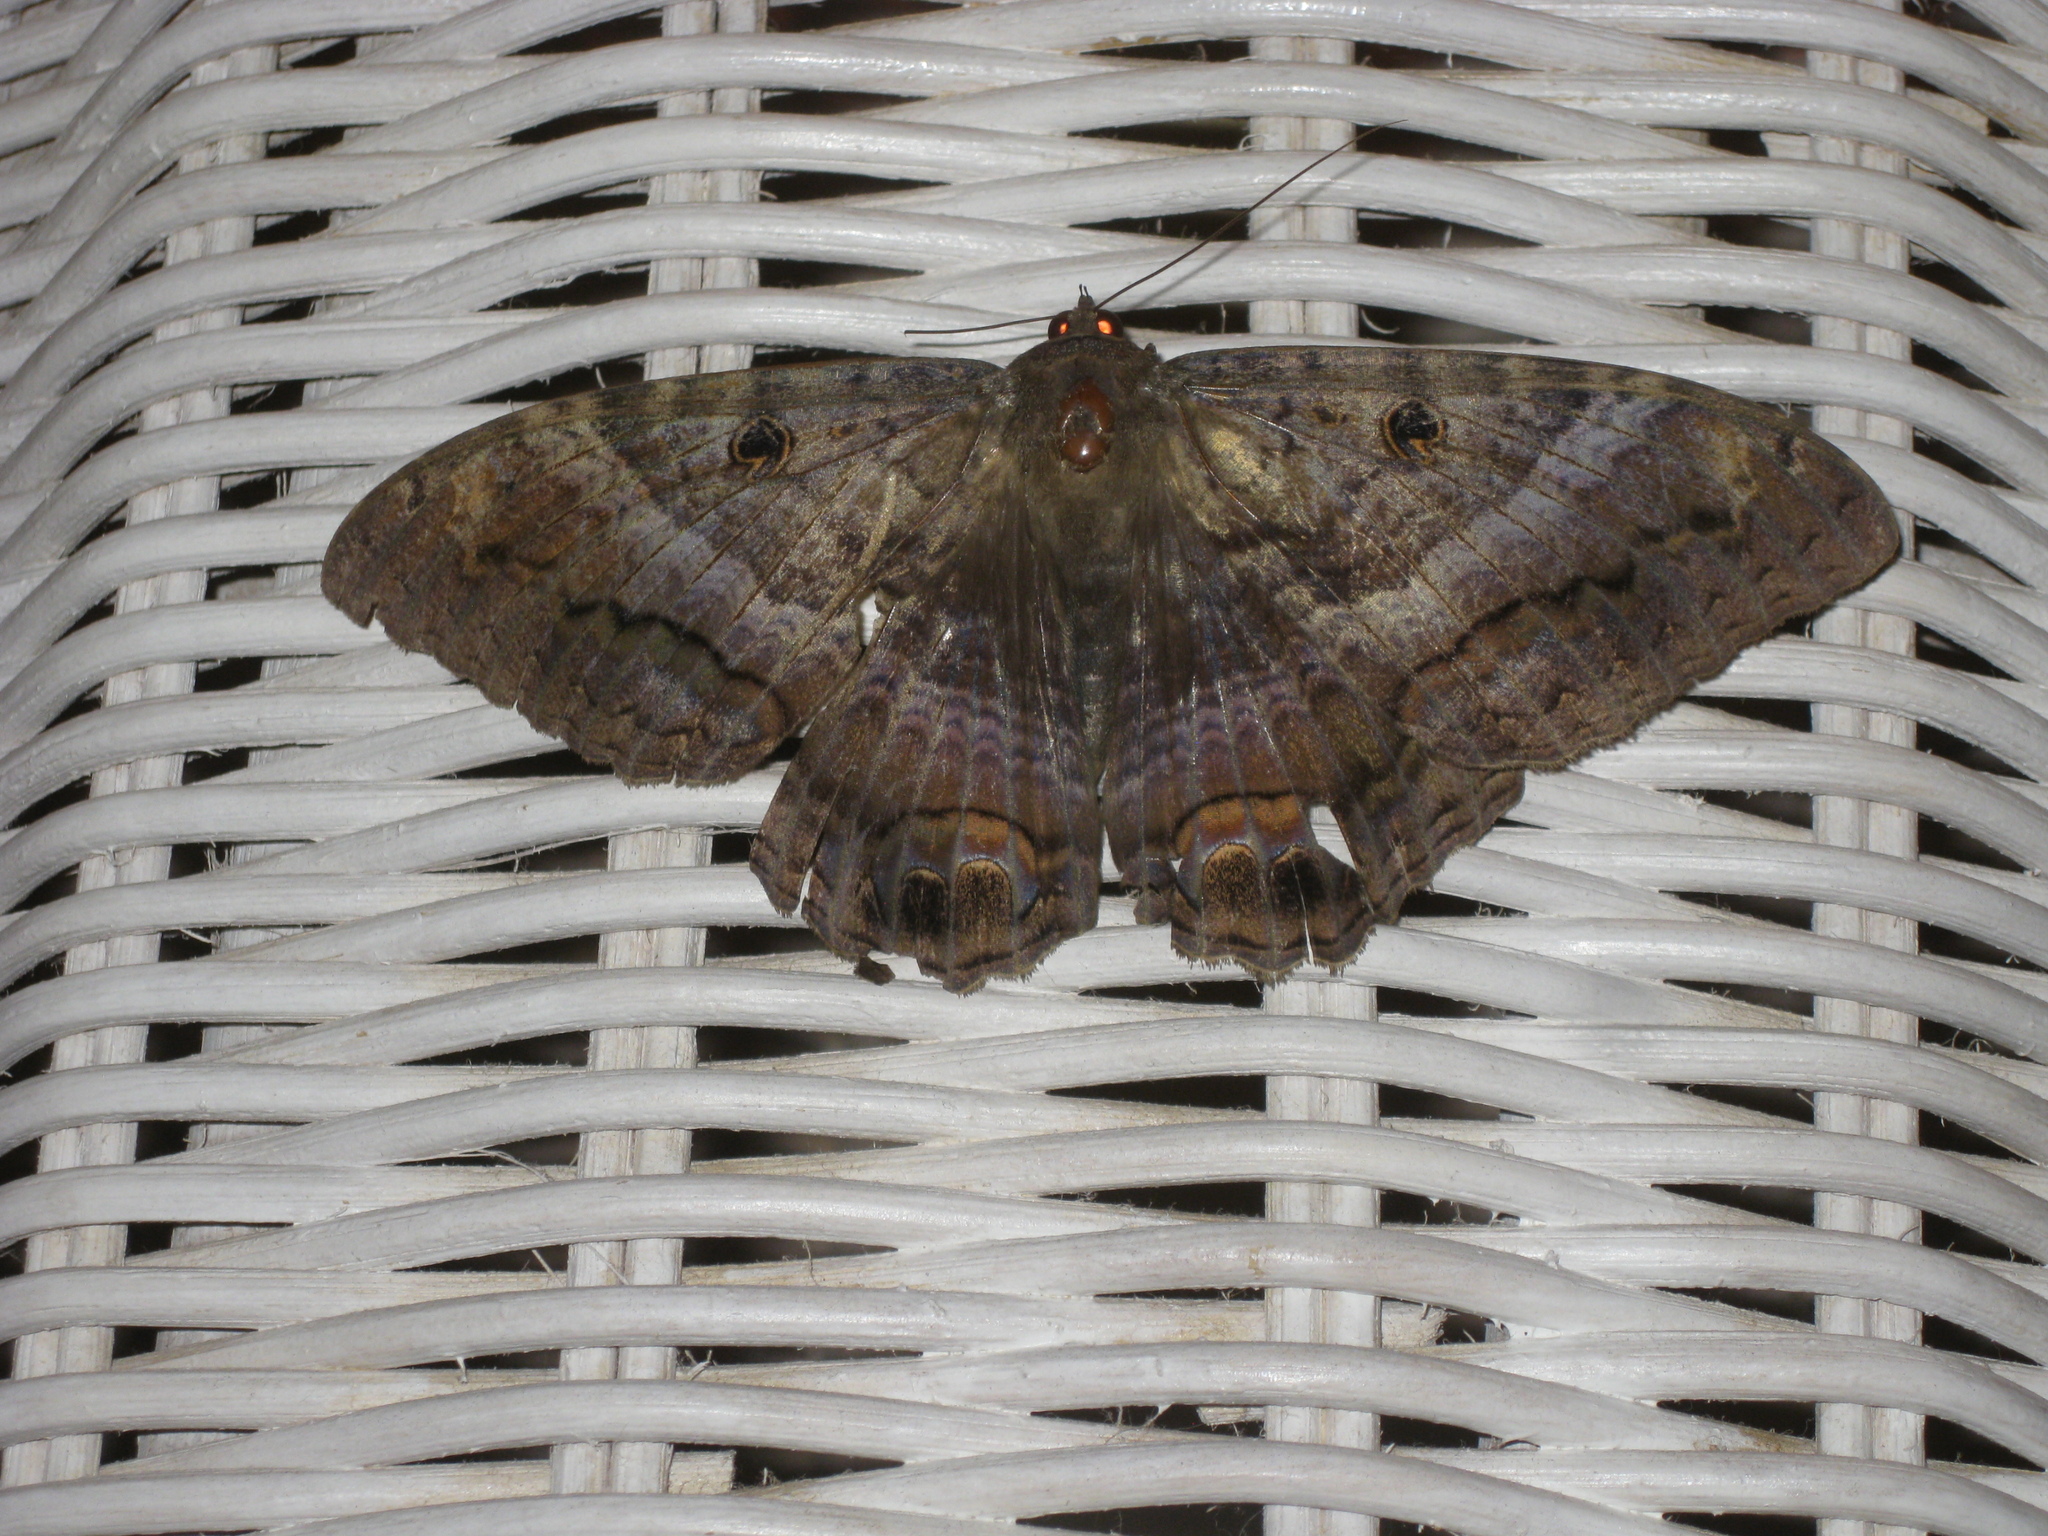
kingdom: Animalia
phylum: Arthropoda
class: Insecta
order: Lepidoptera
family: Erebidae
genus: Ascalapha
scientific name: Ascalapha odorata
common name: Black witch
